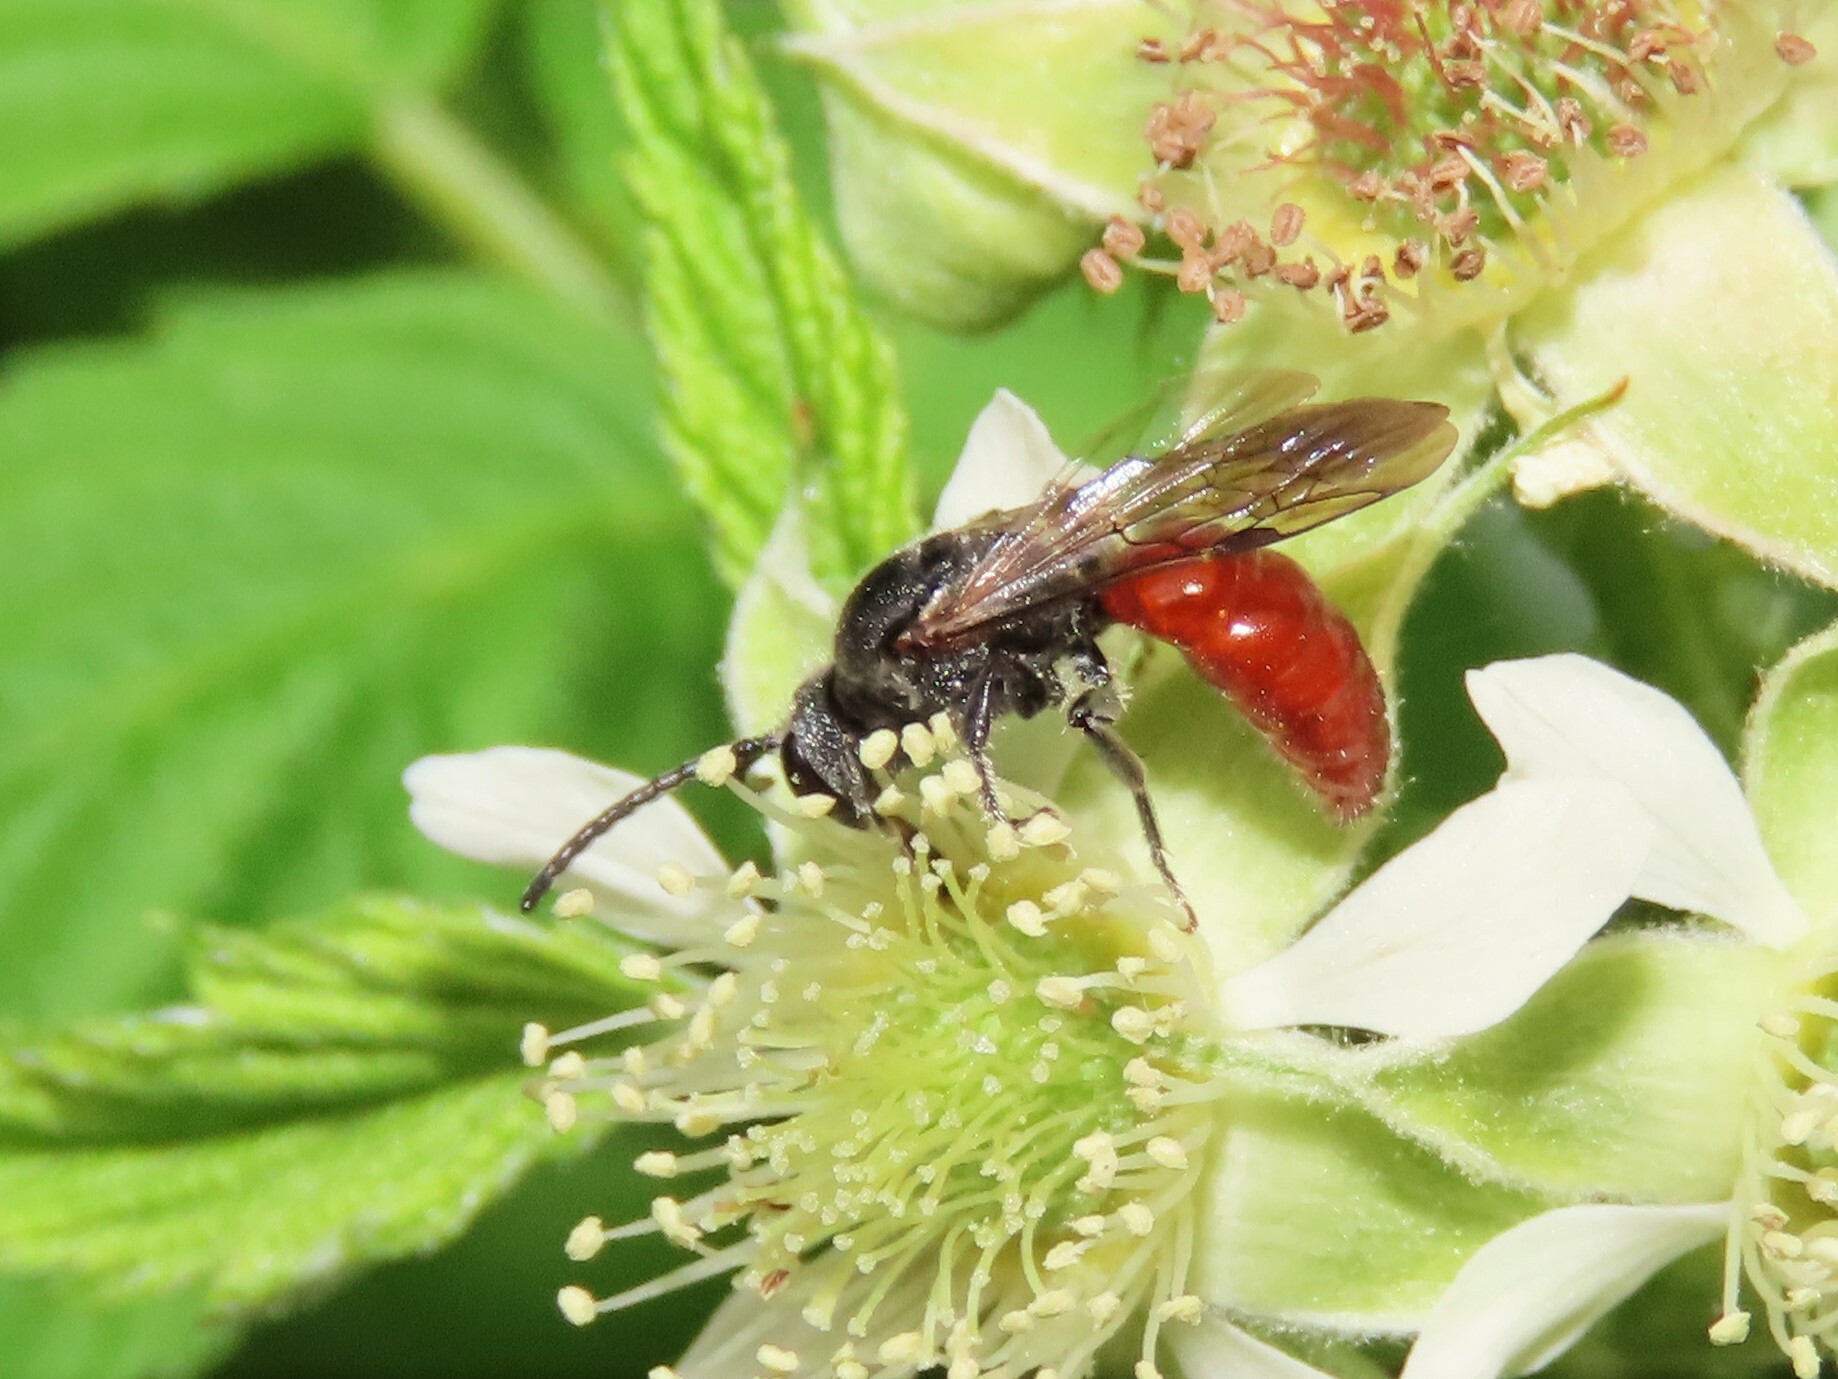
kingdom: Animalia
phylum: Arthropoda
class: Insecta
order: Hymenoptera
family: Halictidae
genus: Sphecodes
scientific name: Sphecodes aroniae
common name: Chokeberry cuckoo sweat bee
